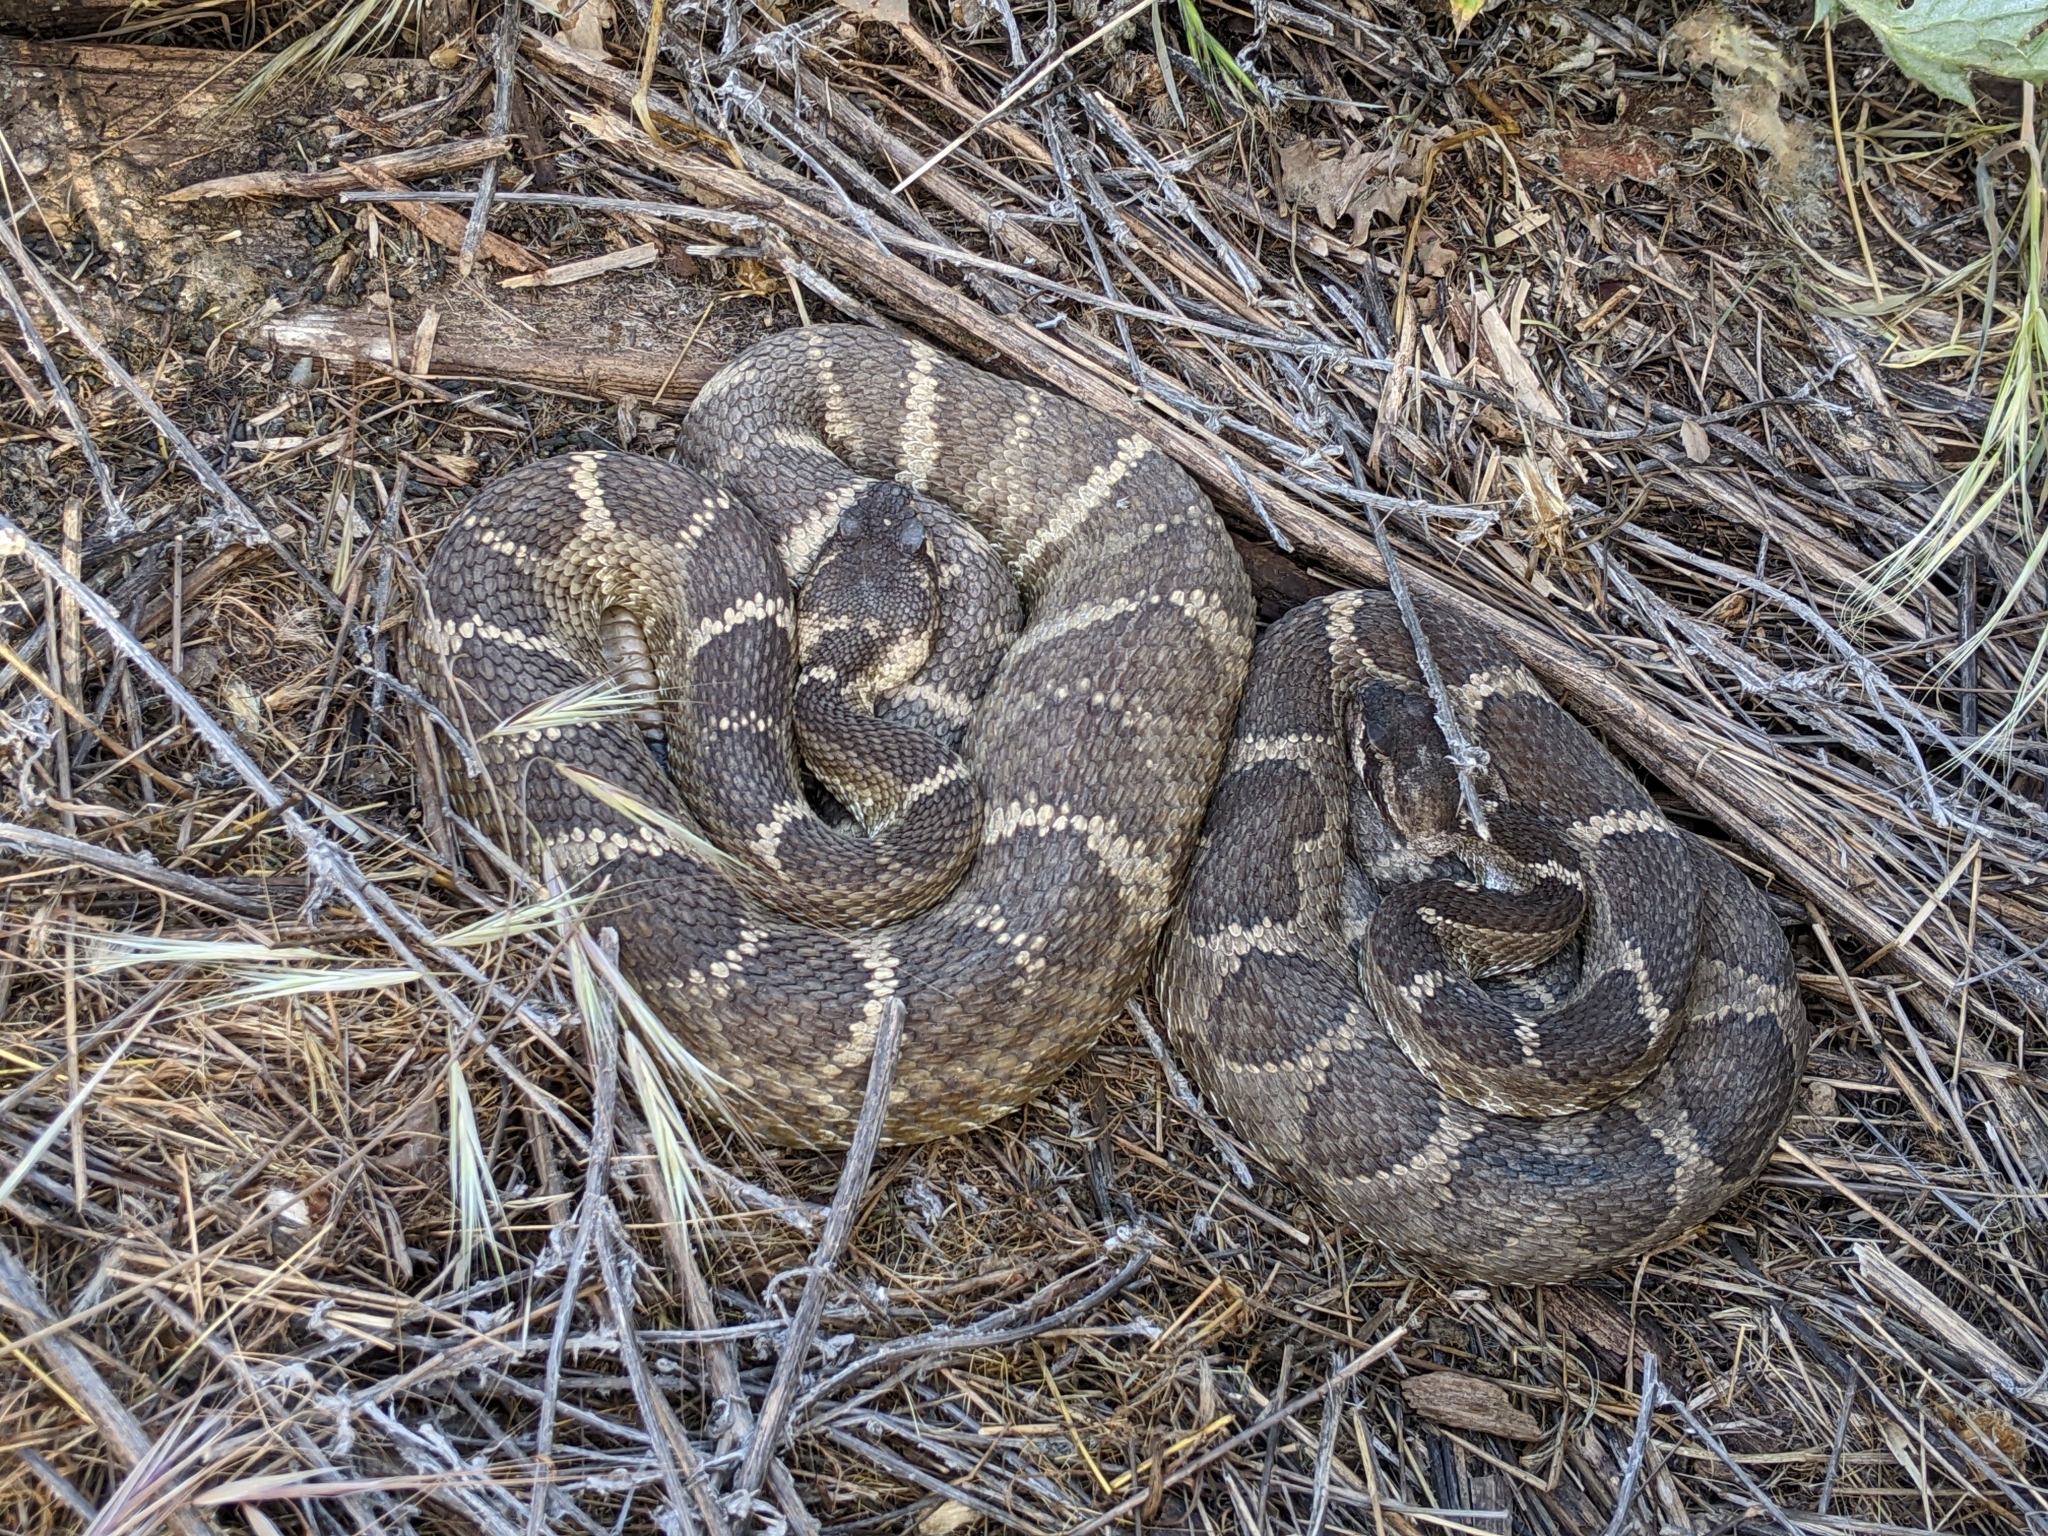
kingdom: Animalia
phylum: Chordata
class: Squamata
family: Viperidae
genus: Crotalus
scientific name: Crotalus oreganus
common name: Abyssus
